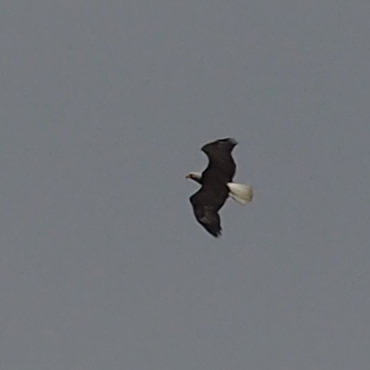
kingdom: Animalia
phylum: Chordata
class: Aves
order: Accipitriformes
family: Accipitridae
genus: Haliaeetus
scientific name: Haliaeetus leucocephalus
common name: Bald eagle
